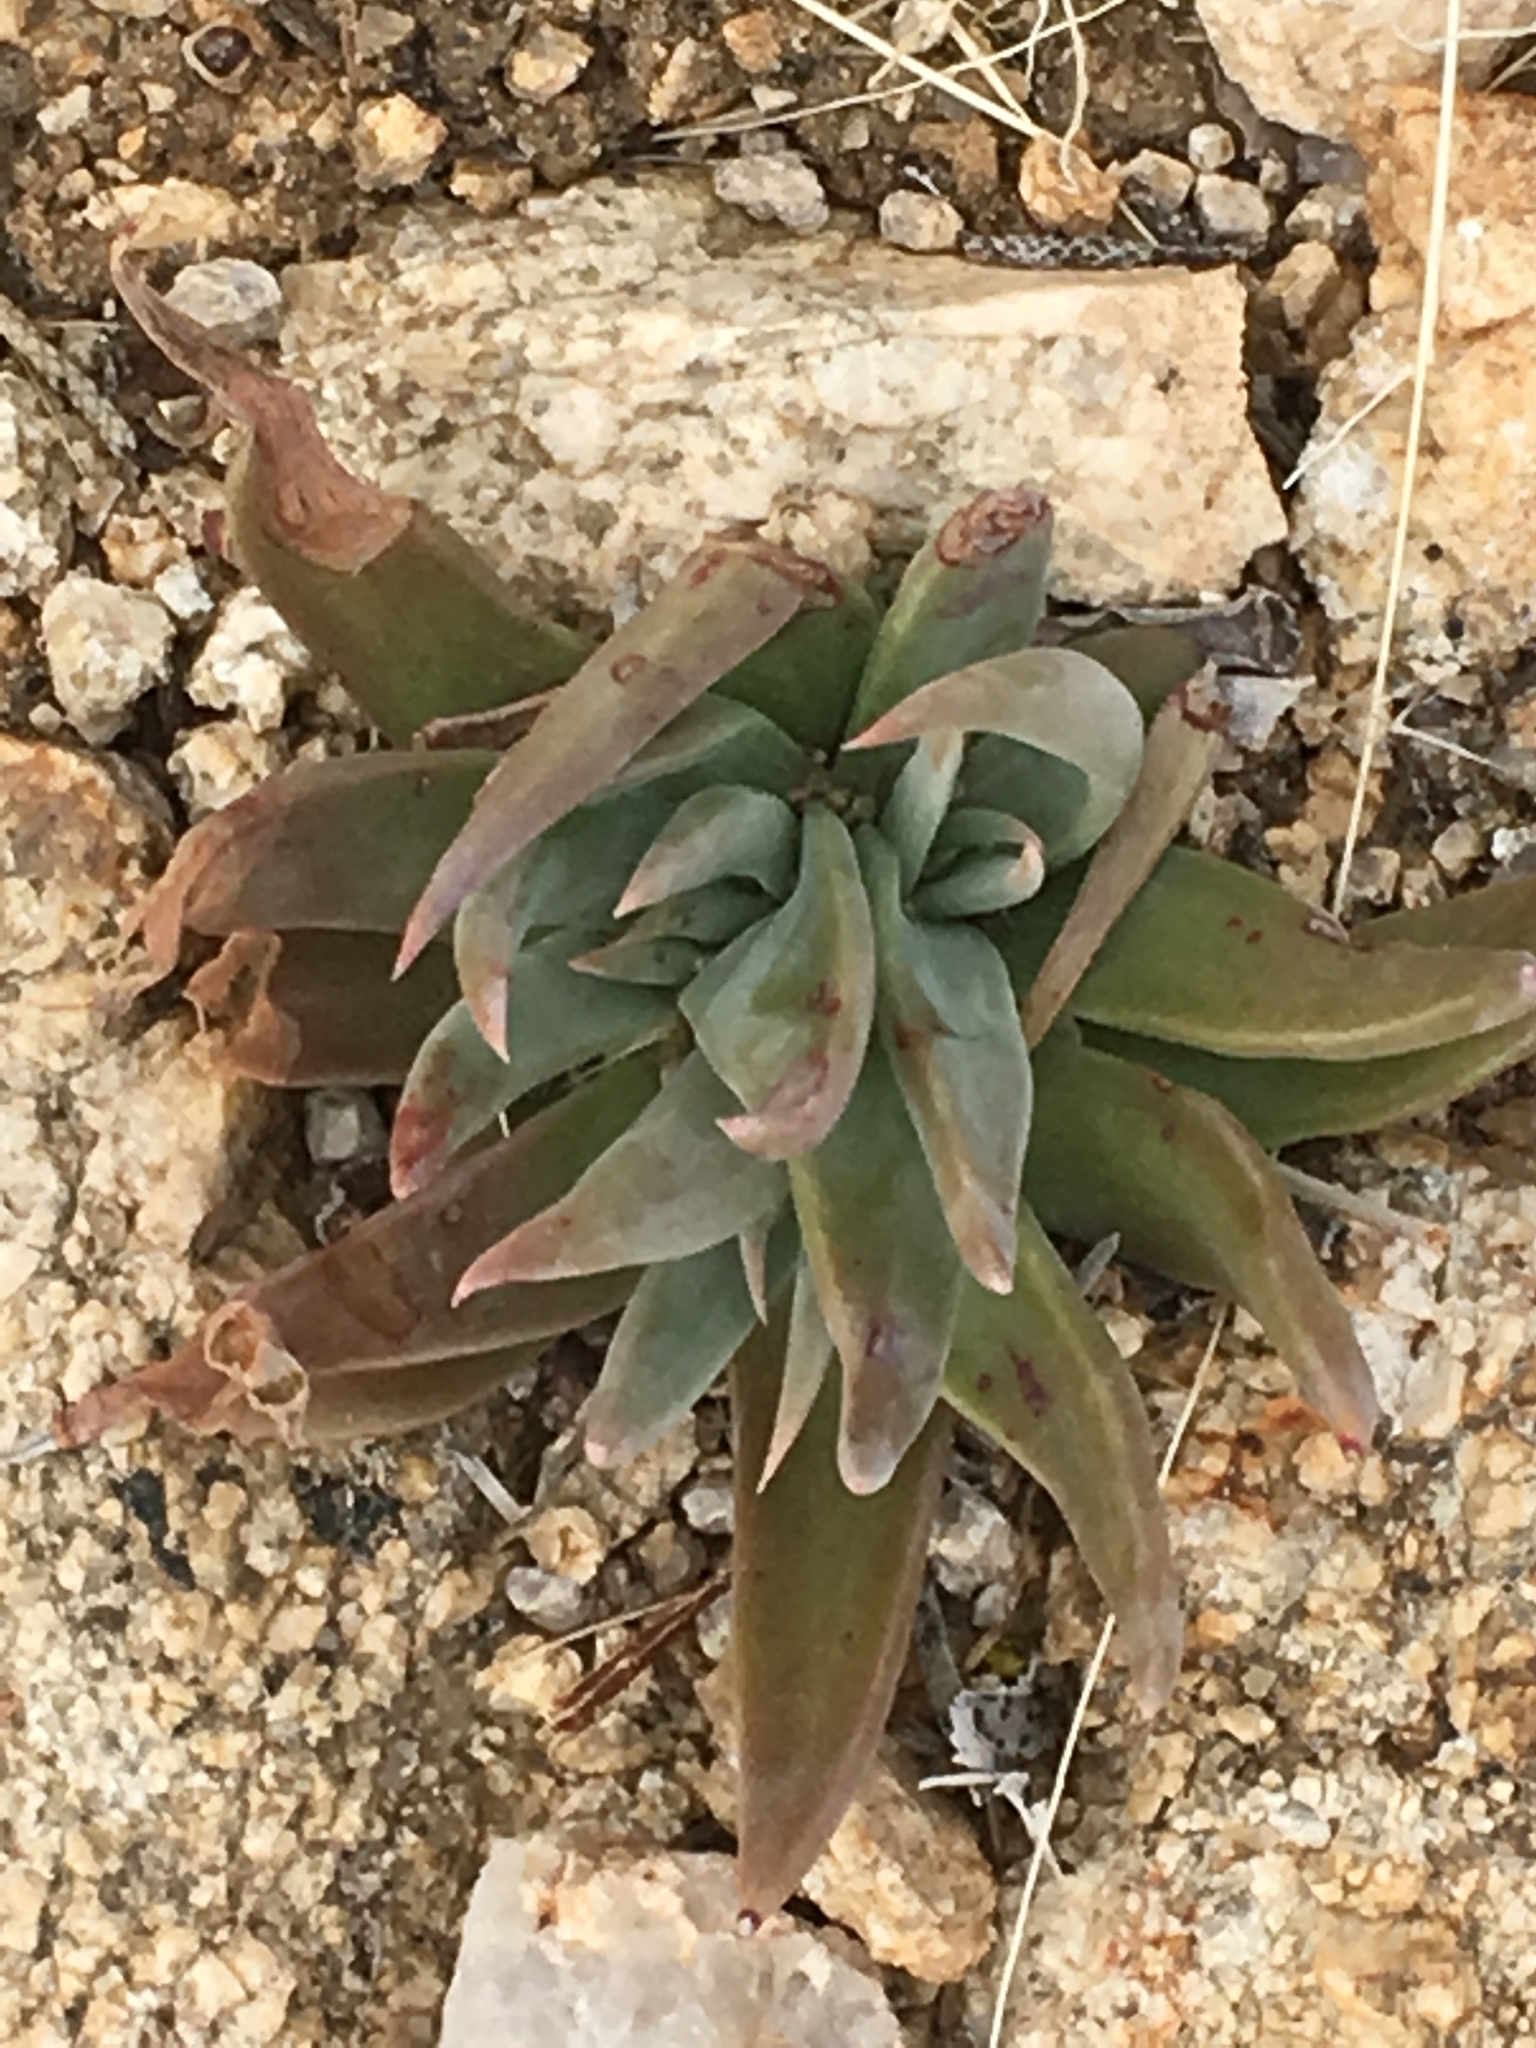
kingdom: Plantae
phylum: Tracheophyta
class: Magnoliopsida
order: Saxifragales
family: Crassulaceae
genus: Dudleya
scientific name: Dudleya saxosa
